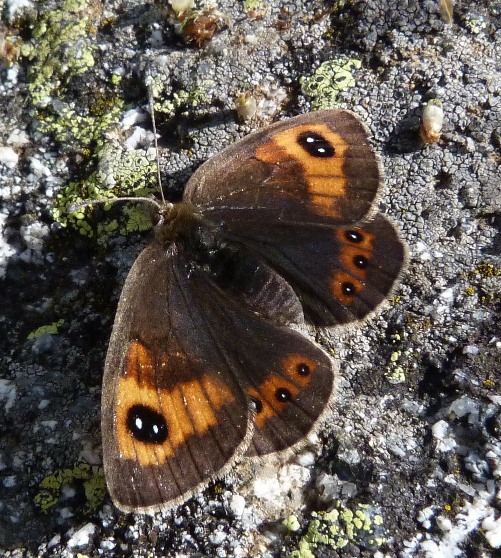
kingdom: Animalia
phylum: Arthropoda
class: Insecta
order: Lepidoptera
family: Nymphalidae
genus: Erebia
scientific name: Erebia tyndarus
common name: Swiss brassy ringlet
